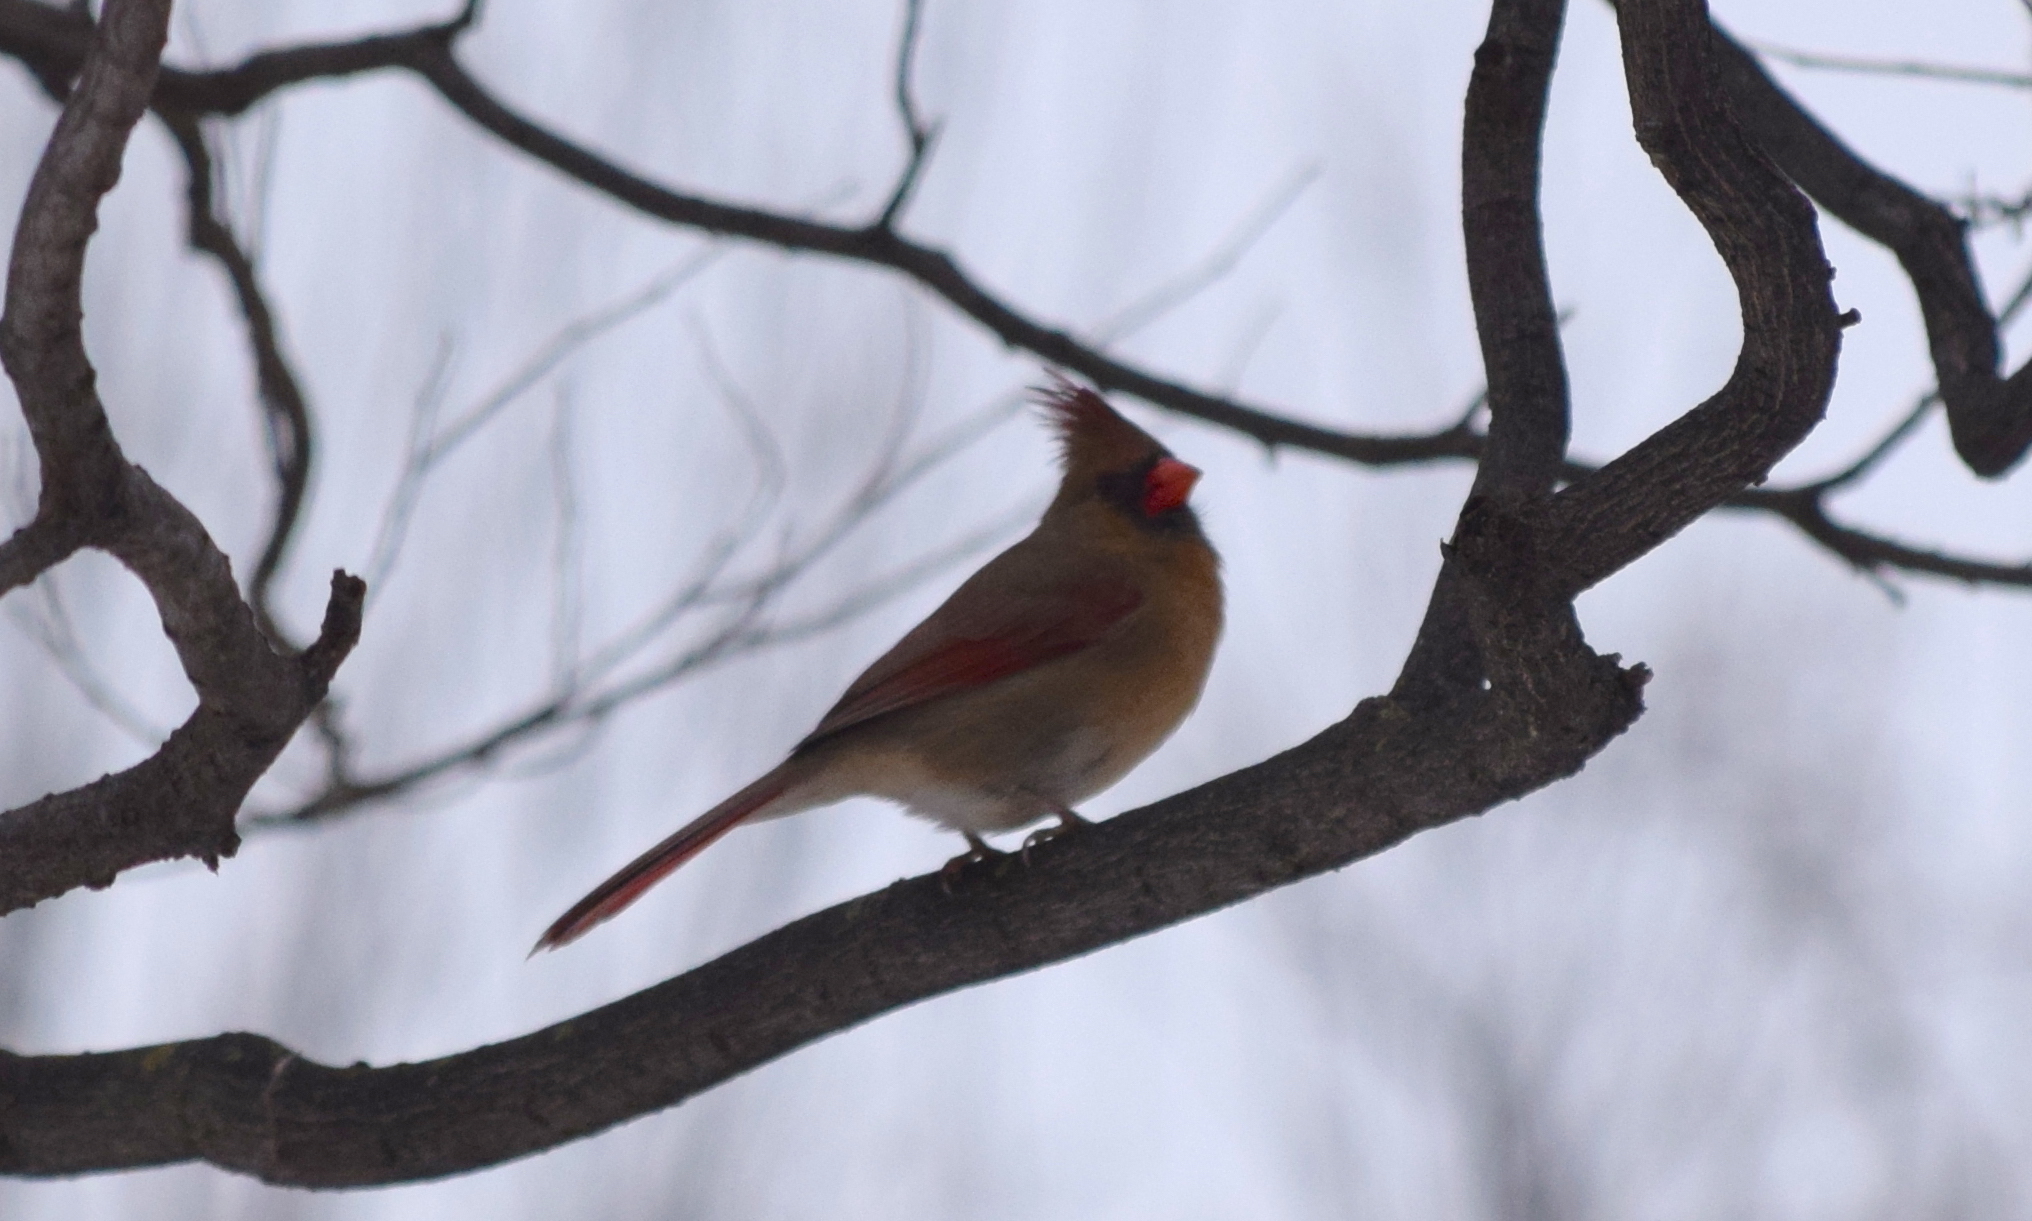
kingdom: Animalia
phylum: Chordata
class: Aves
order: Passeriformes
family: Cardinalidae
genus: Cardinalis
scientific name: Cardinalis cardinalis
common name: Northern cardinal
